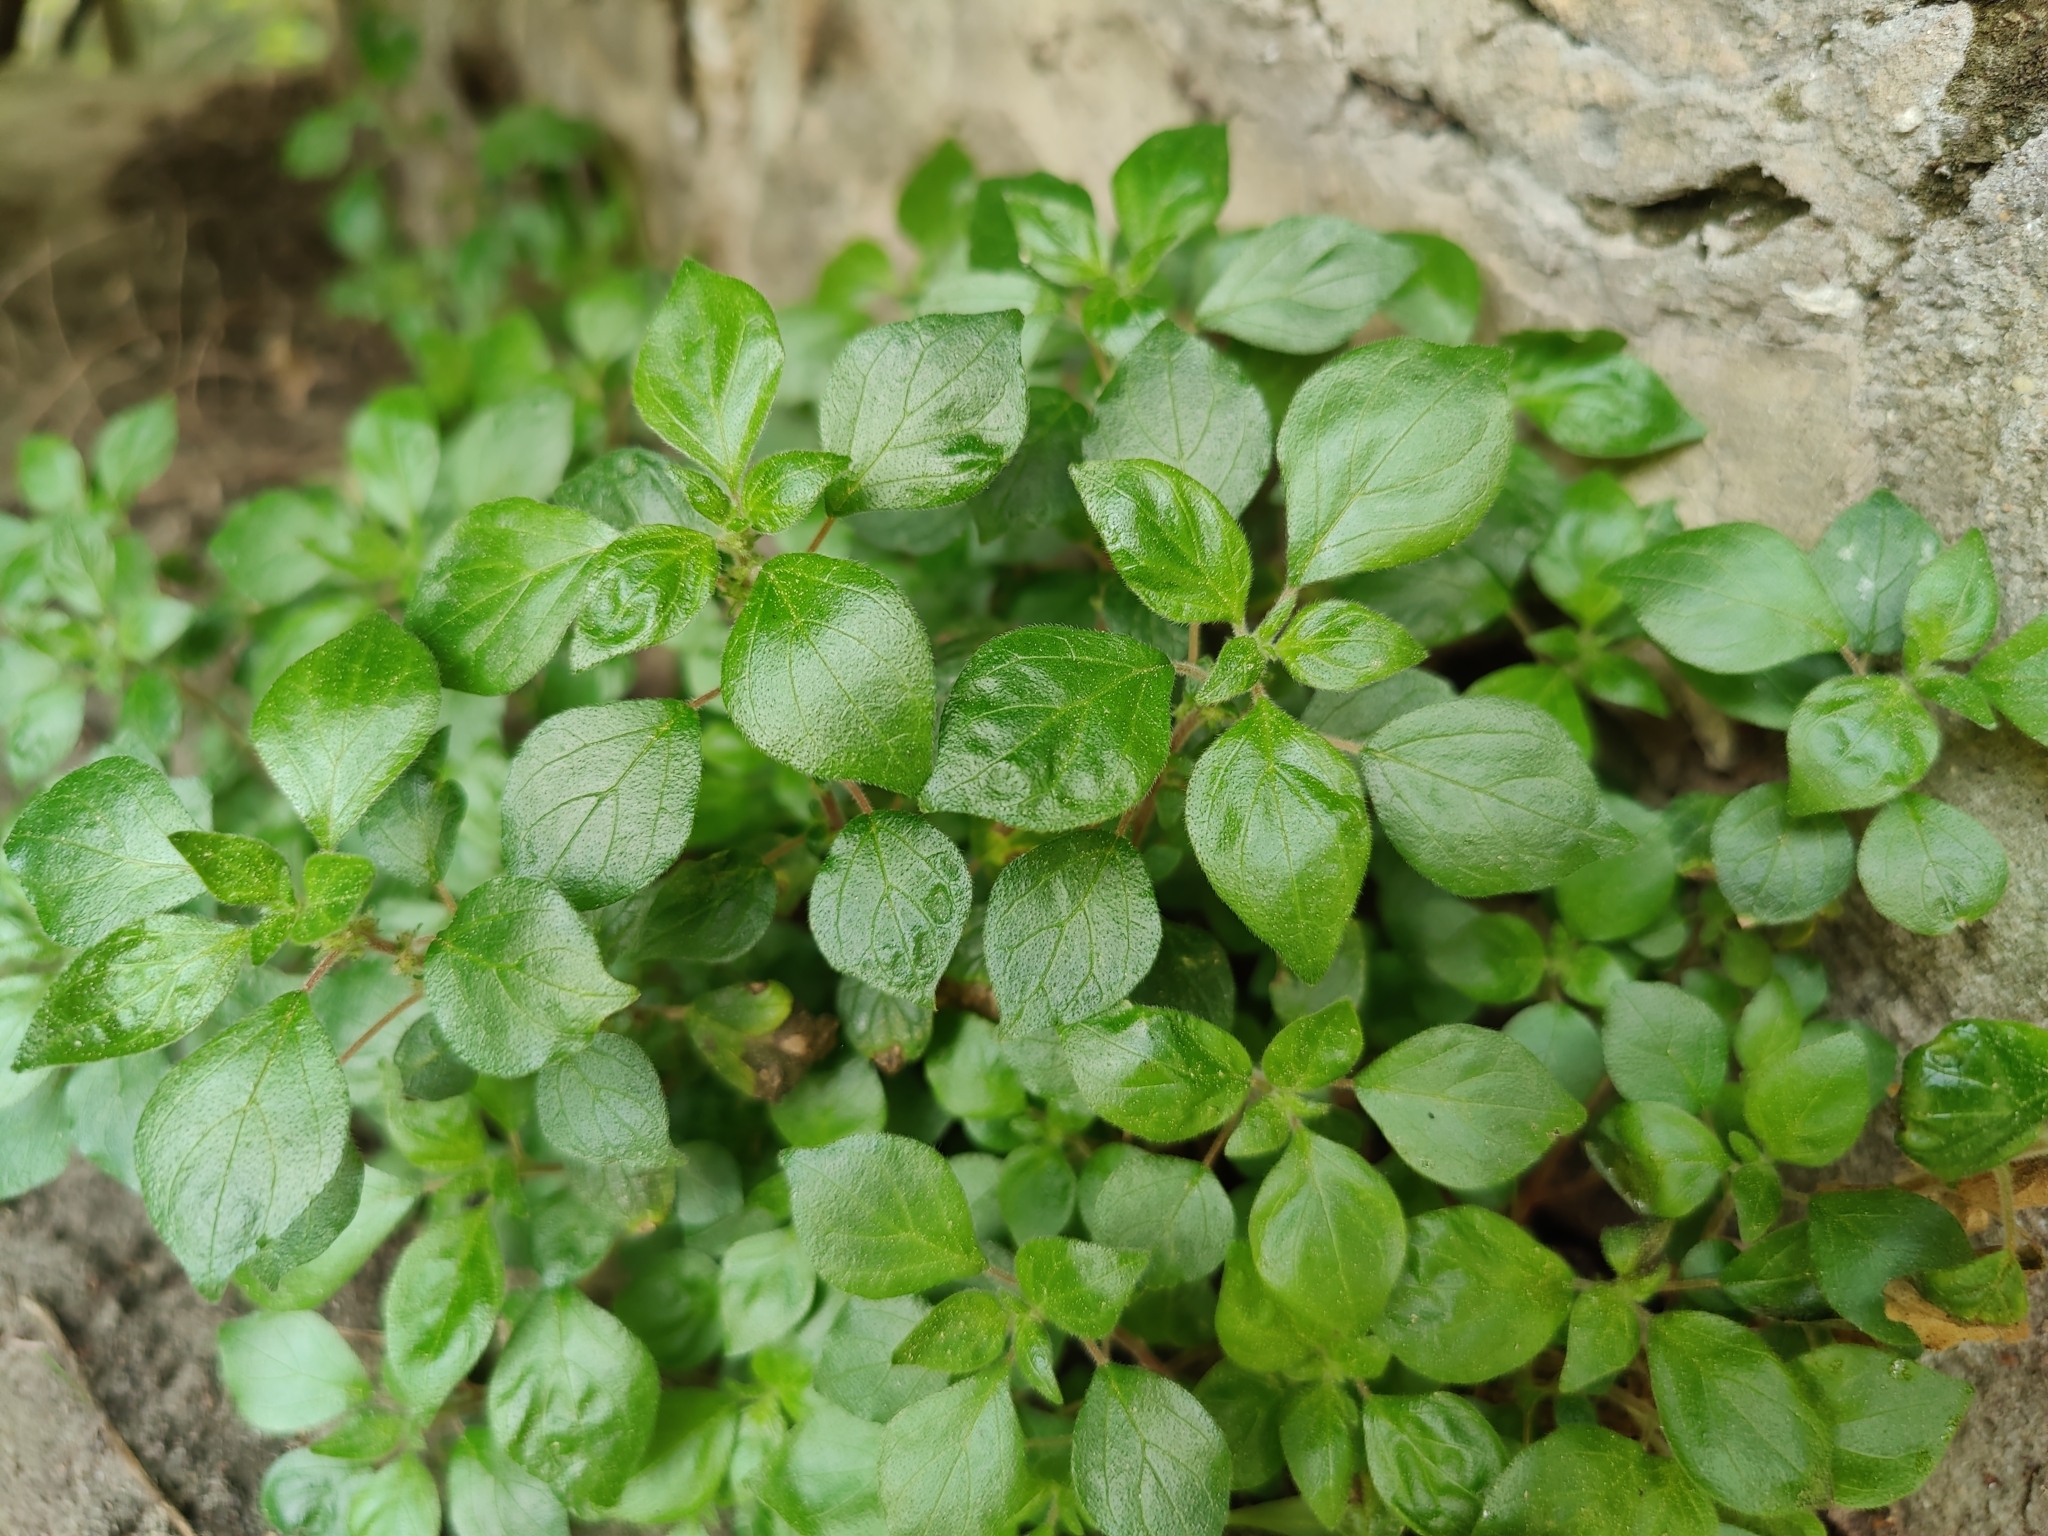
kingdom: Plantae
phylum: Tracheophyta
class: Magnoliopsida
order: Rosales
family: Urticaceae
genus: Parietaria
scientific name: Parietaria judaica
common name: Pellitory-of-the-wall
